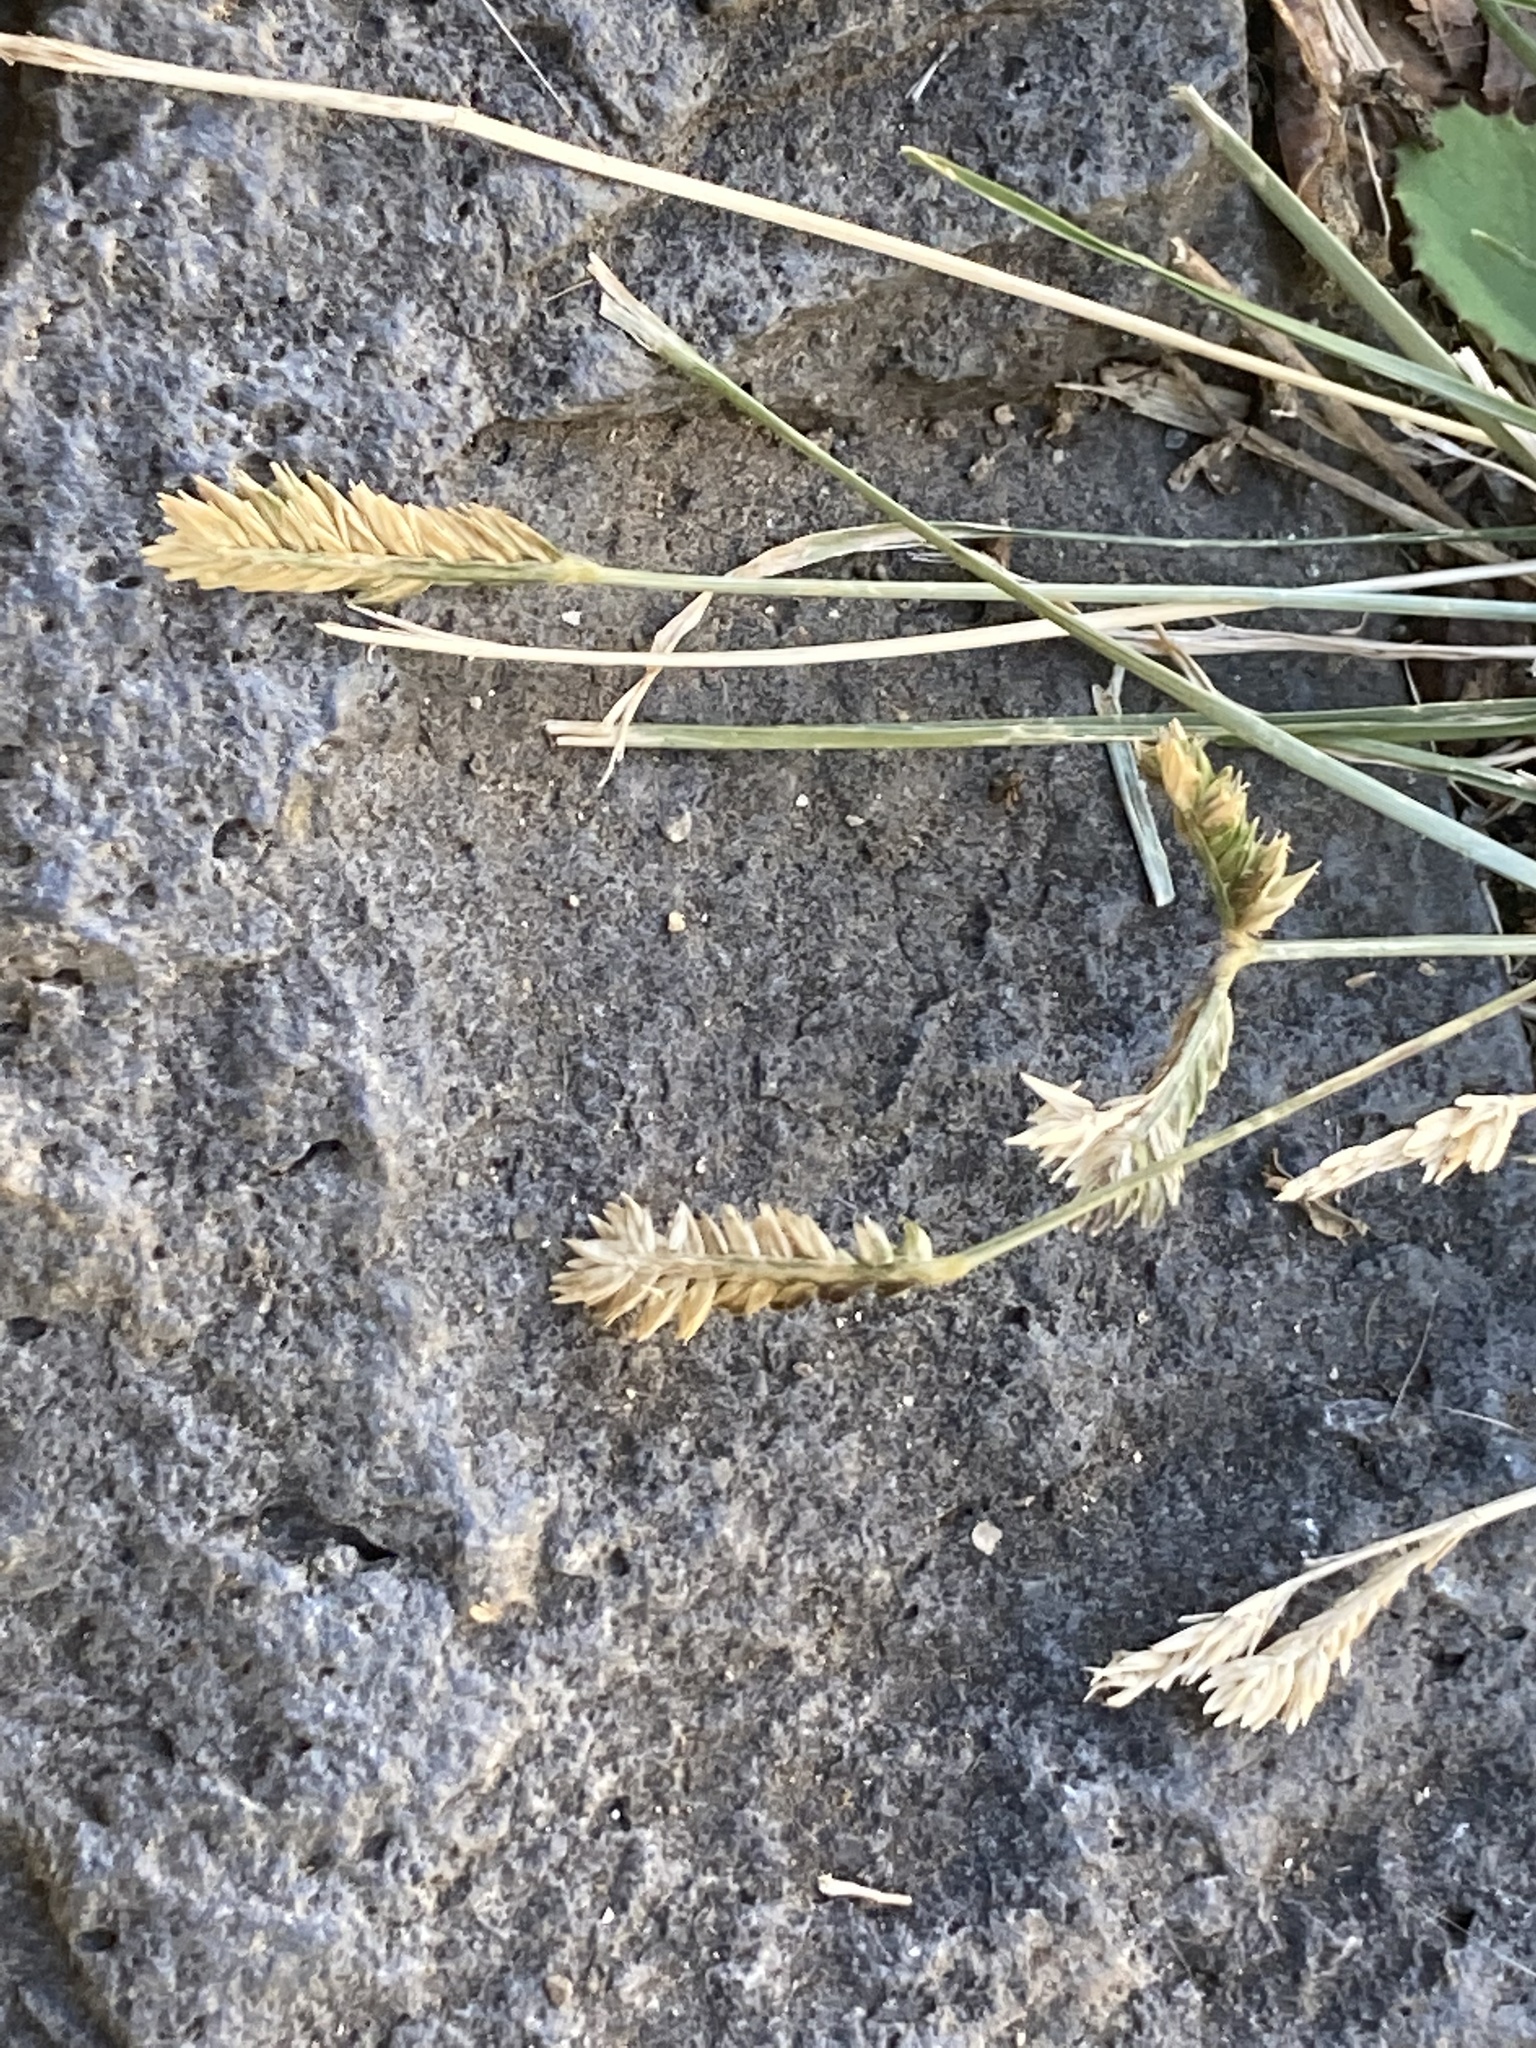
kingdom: Plantae
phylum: Tracheophyta
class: Liliopsida
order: Poales
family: Poaceae
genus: Eleusine
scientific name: Eleusine tristachya
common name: American yard-grass
